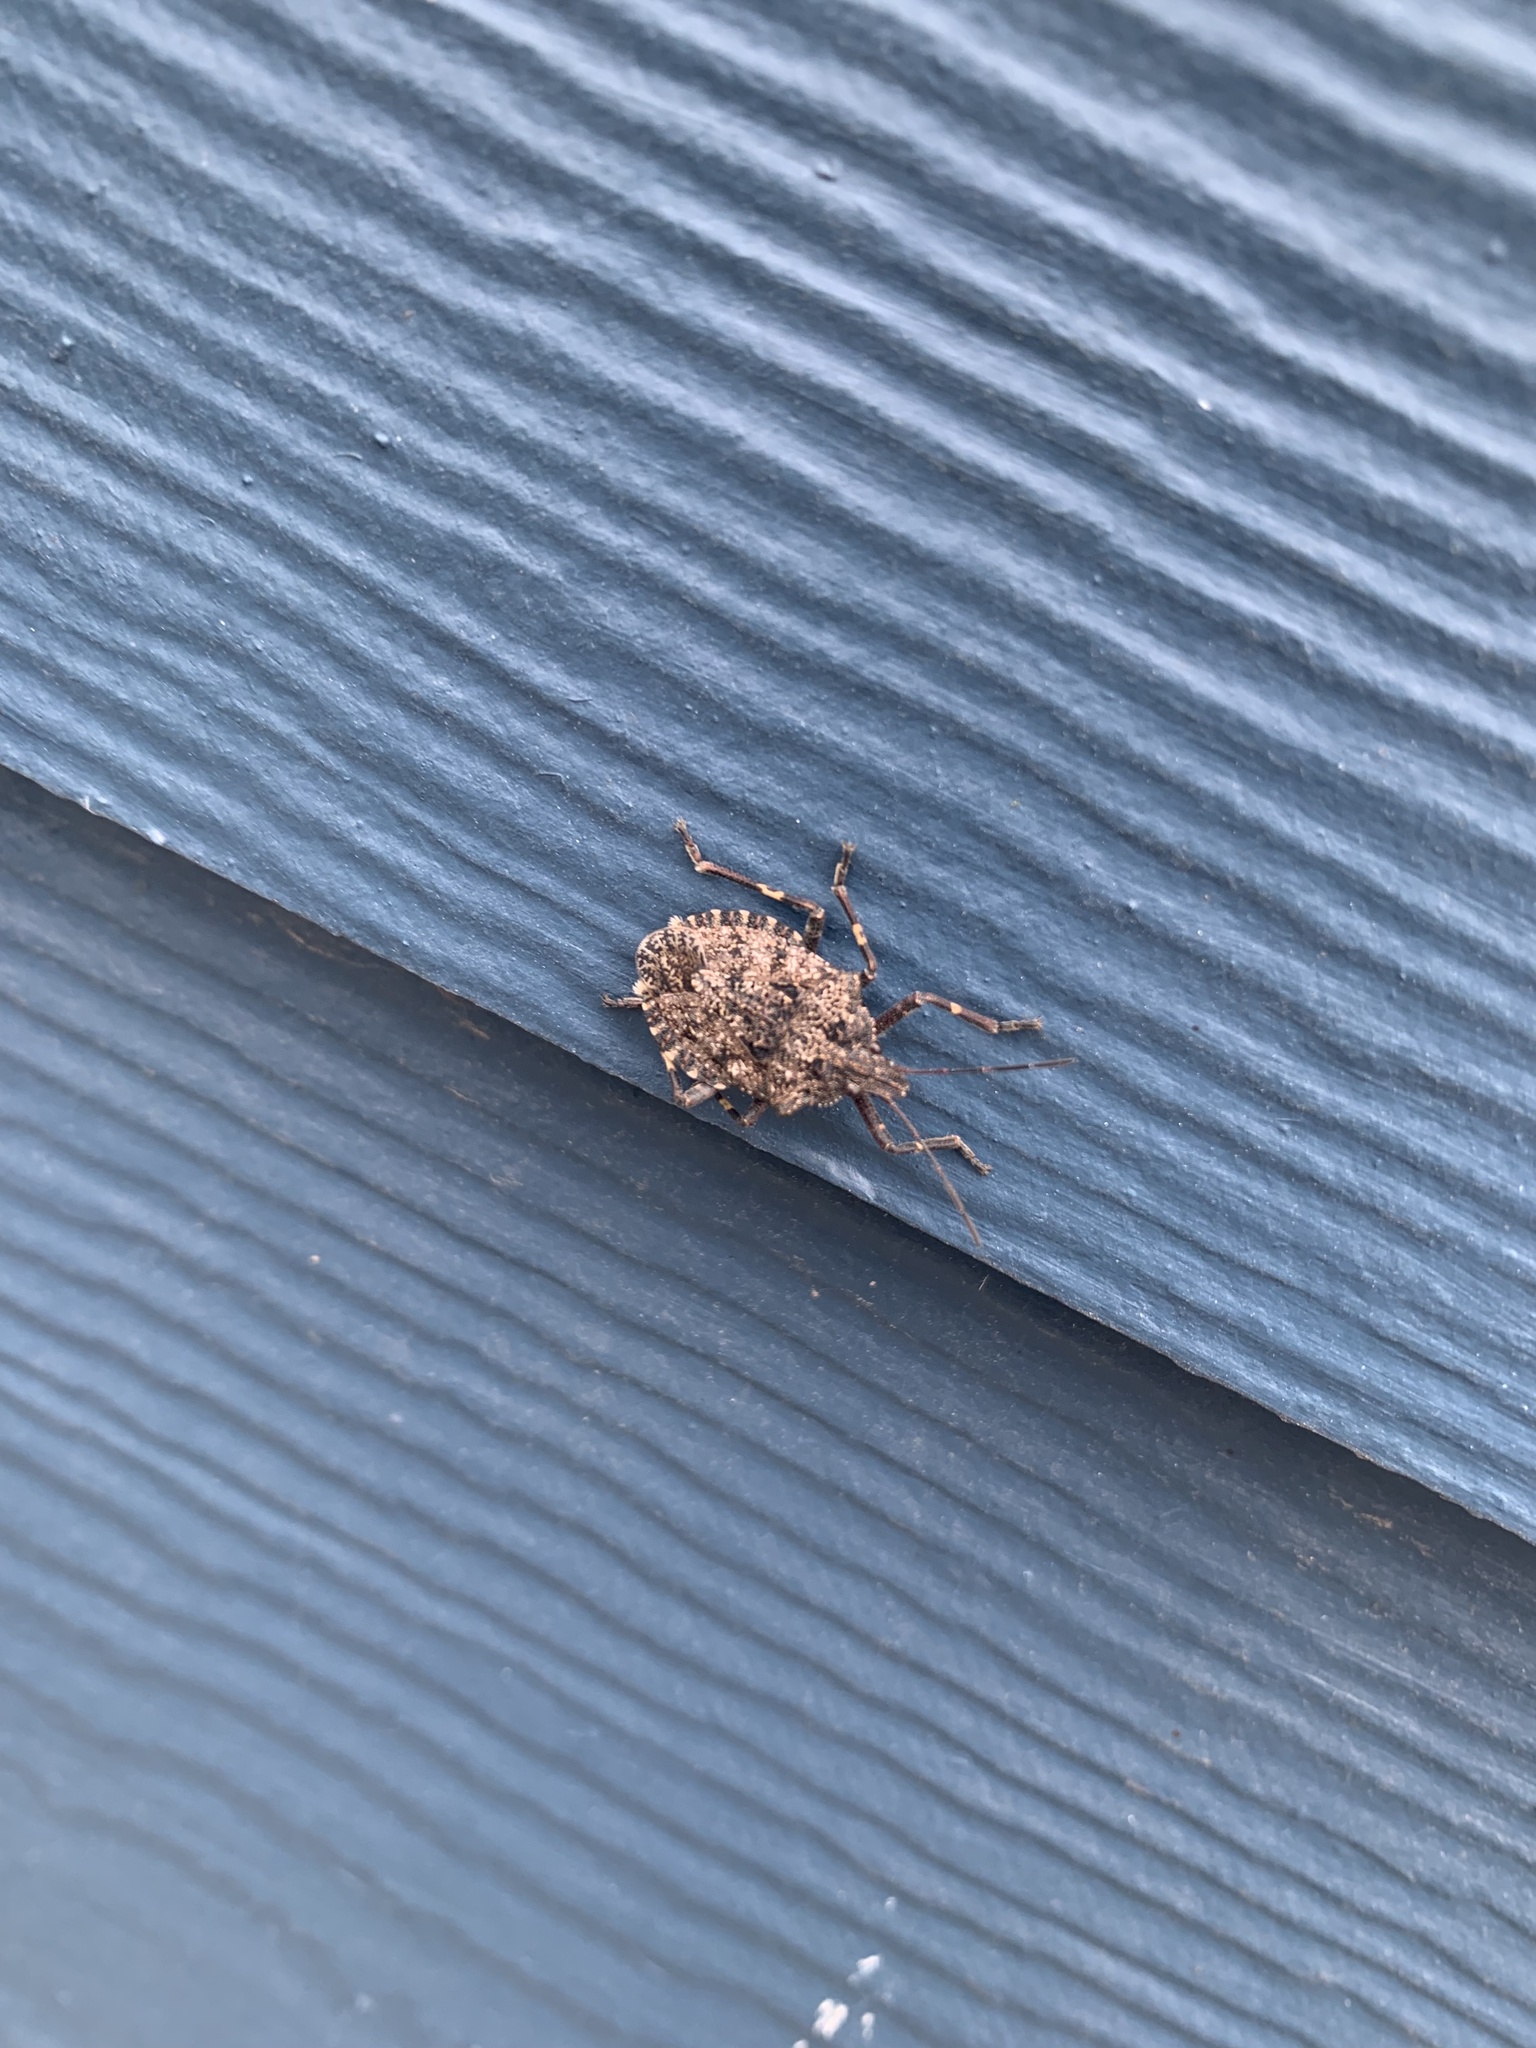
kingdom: Animalia
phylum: Arthropoda
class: Insecta
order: Hemiptera
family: Pentatomidae
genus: Brochymena
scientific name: Brochymena affinis
